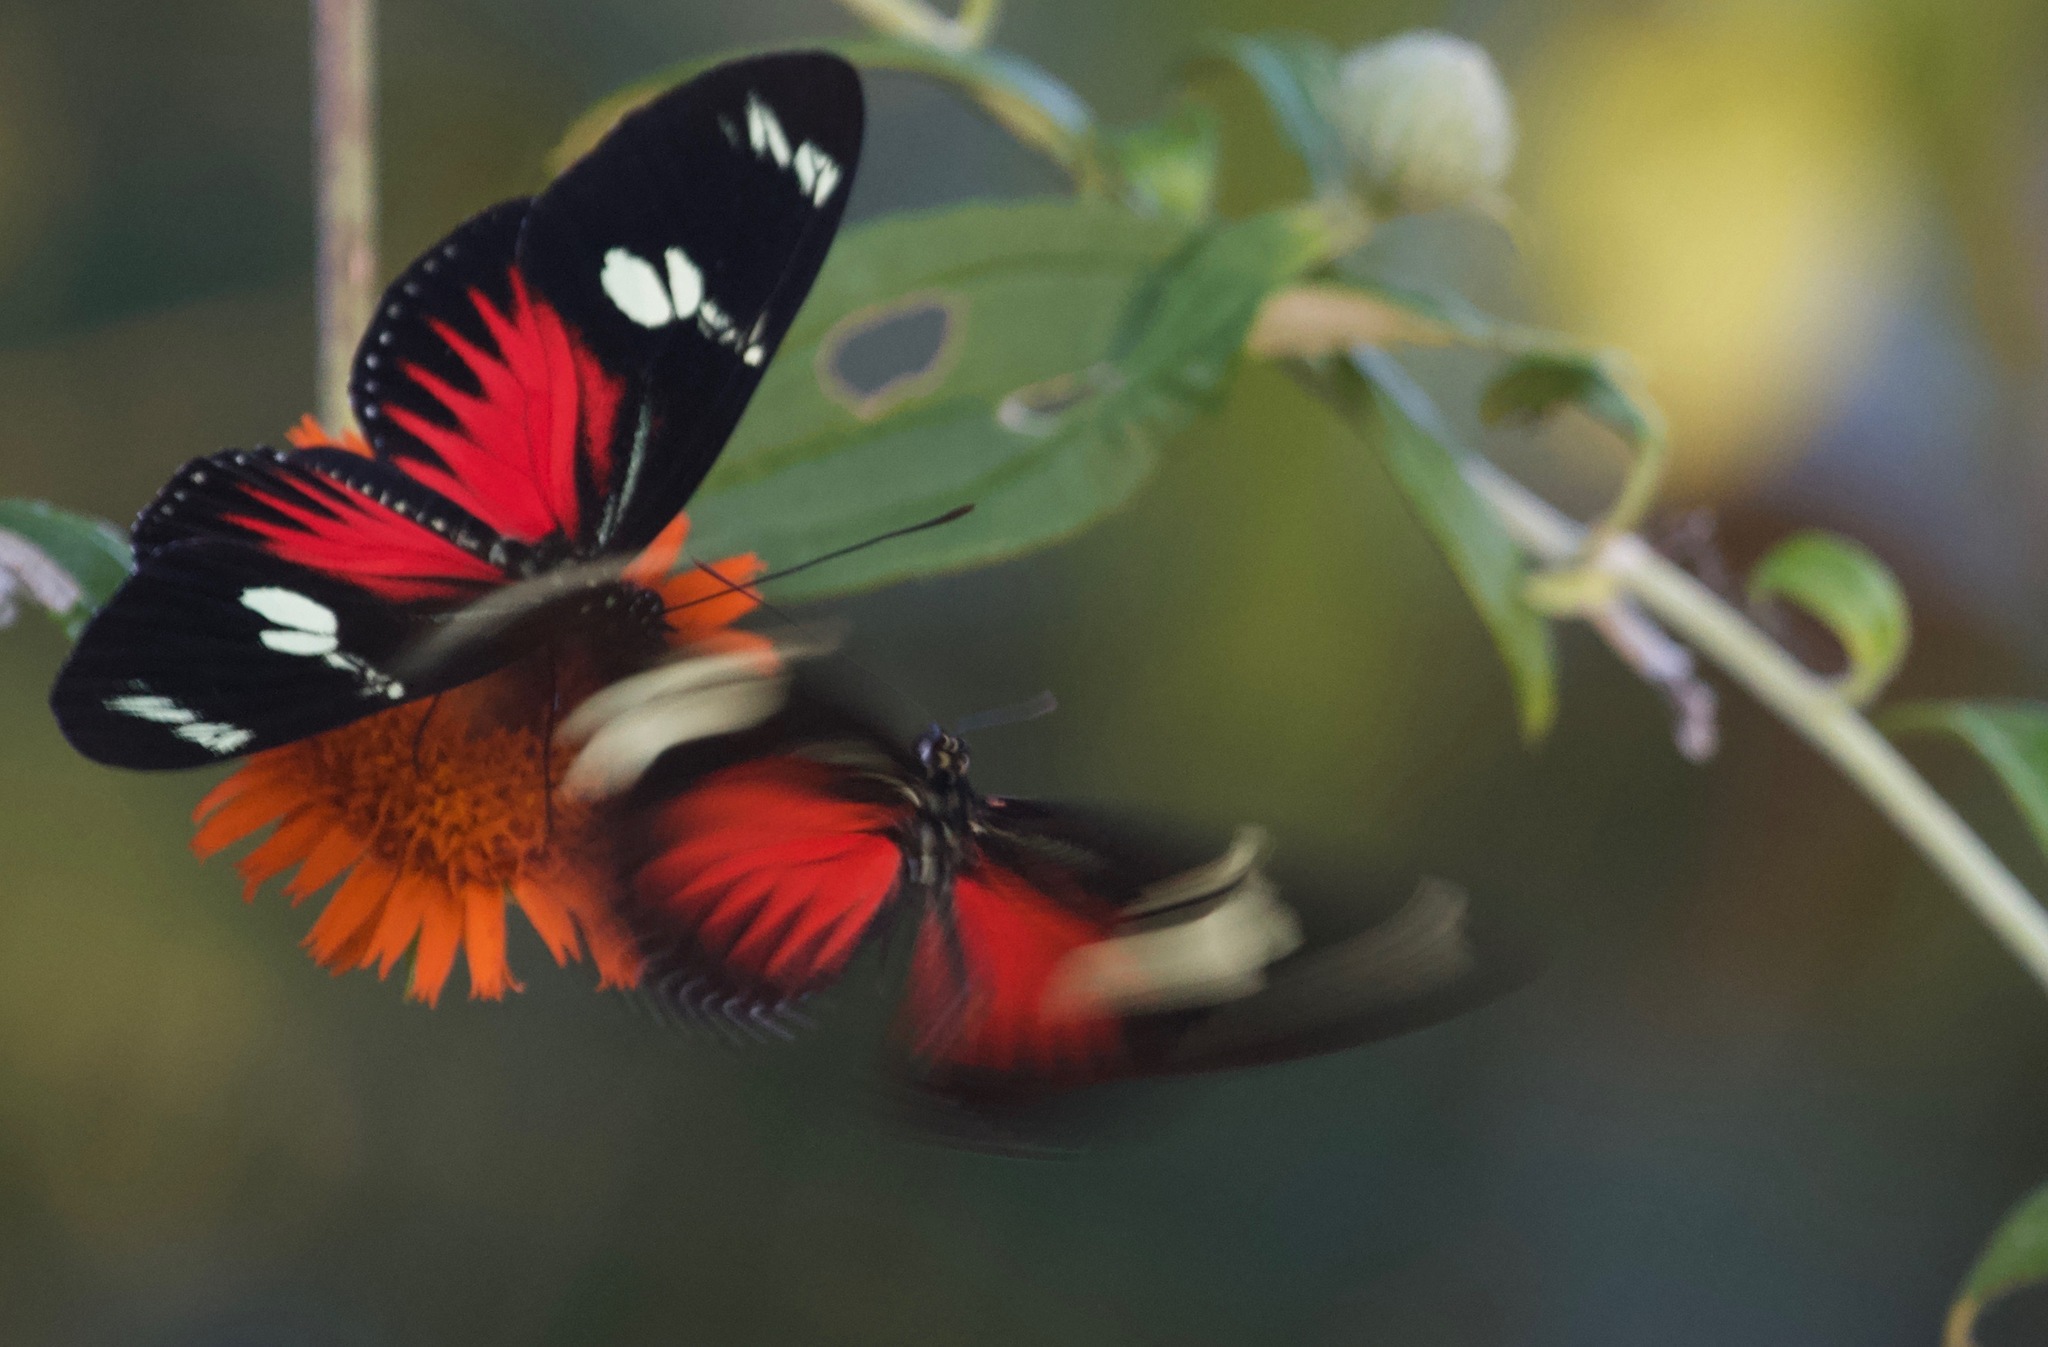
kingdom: Animalia
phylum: Arthropoda
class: Insecta
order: Lepidoptera
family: Nymphalidae
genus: Heliconius
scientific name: Heliconius doris
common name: Doris longwing
